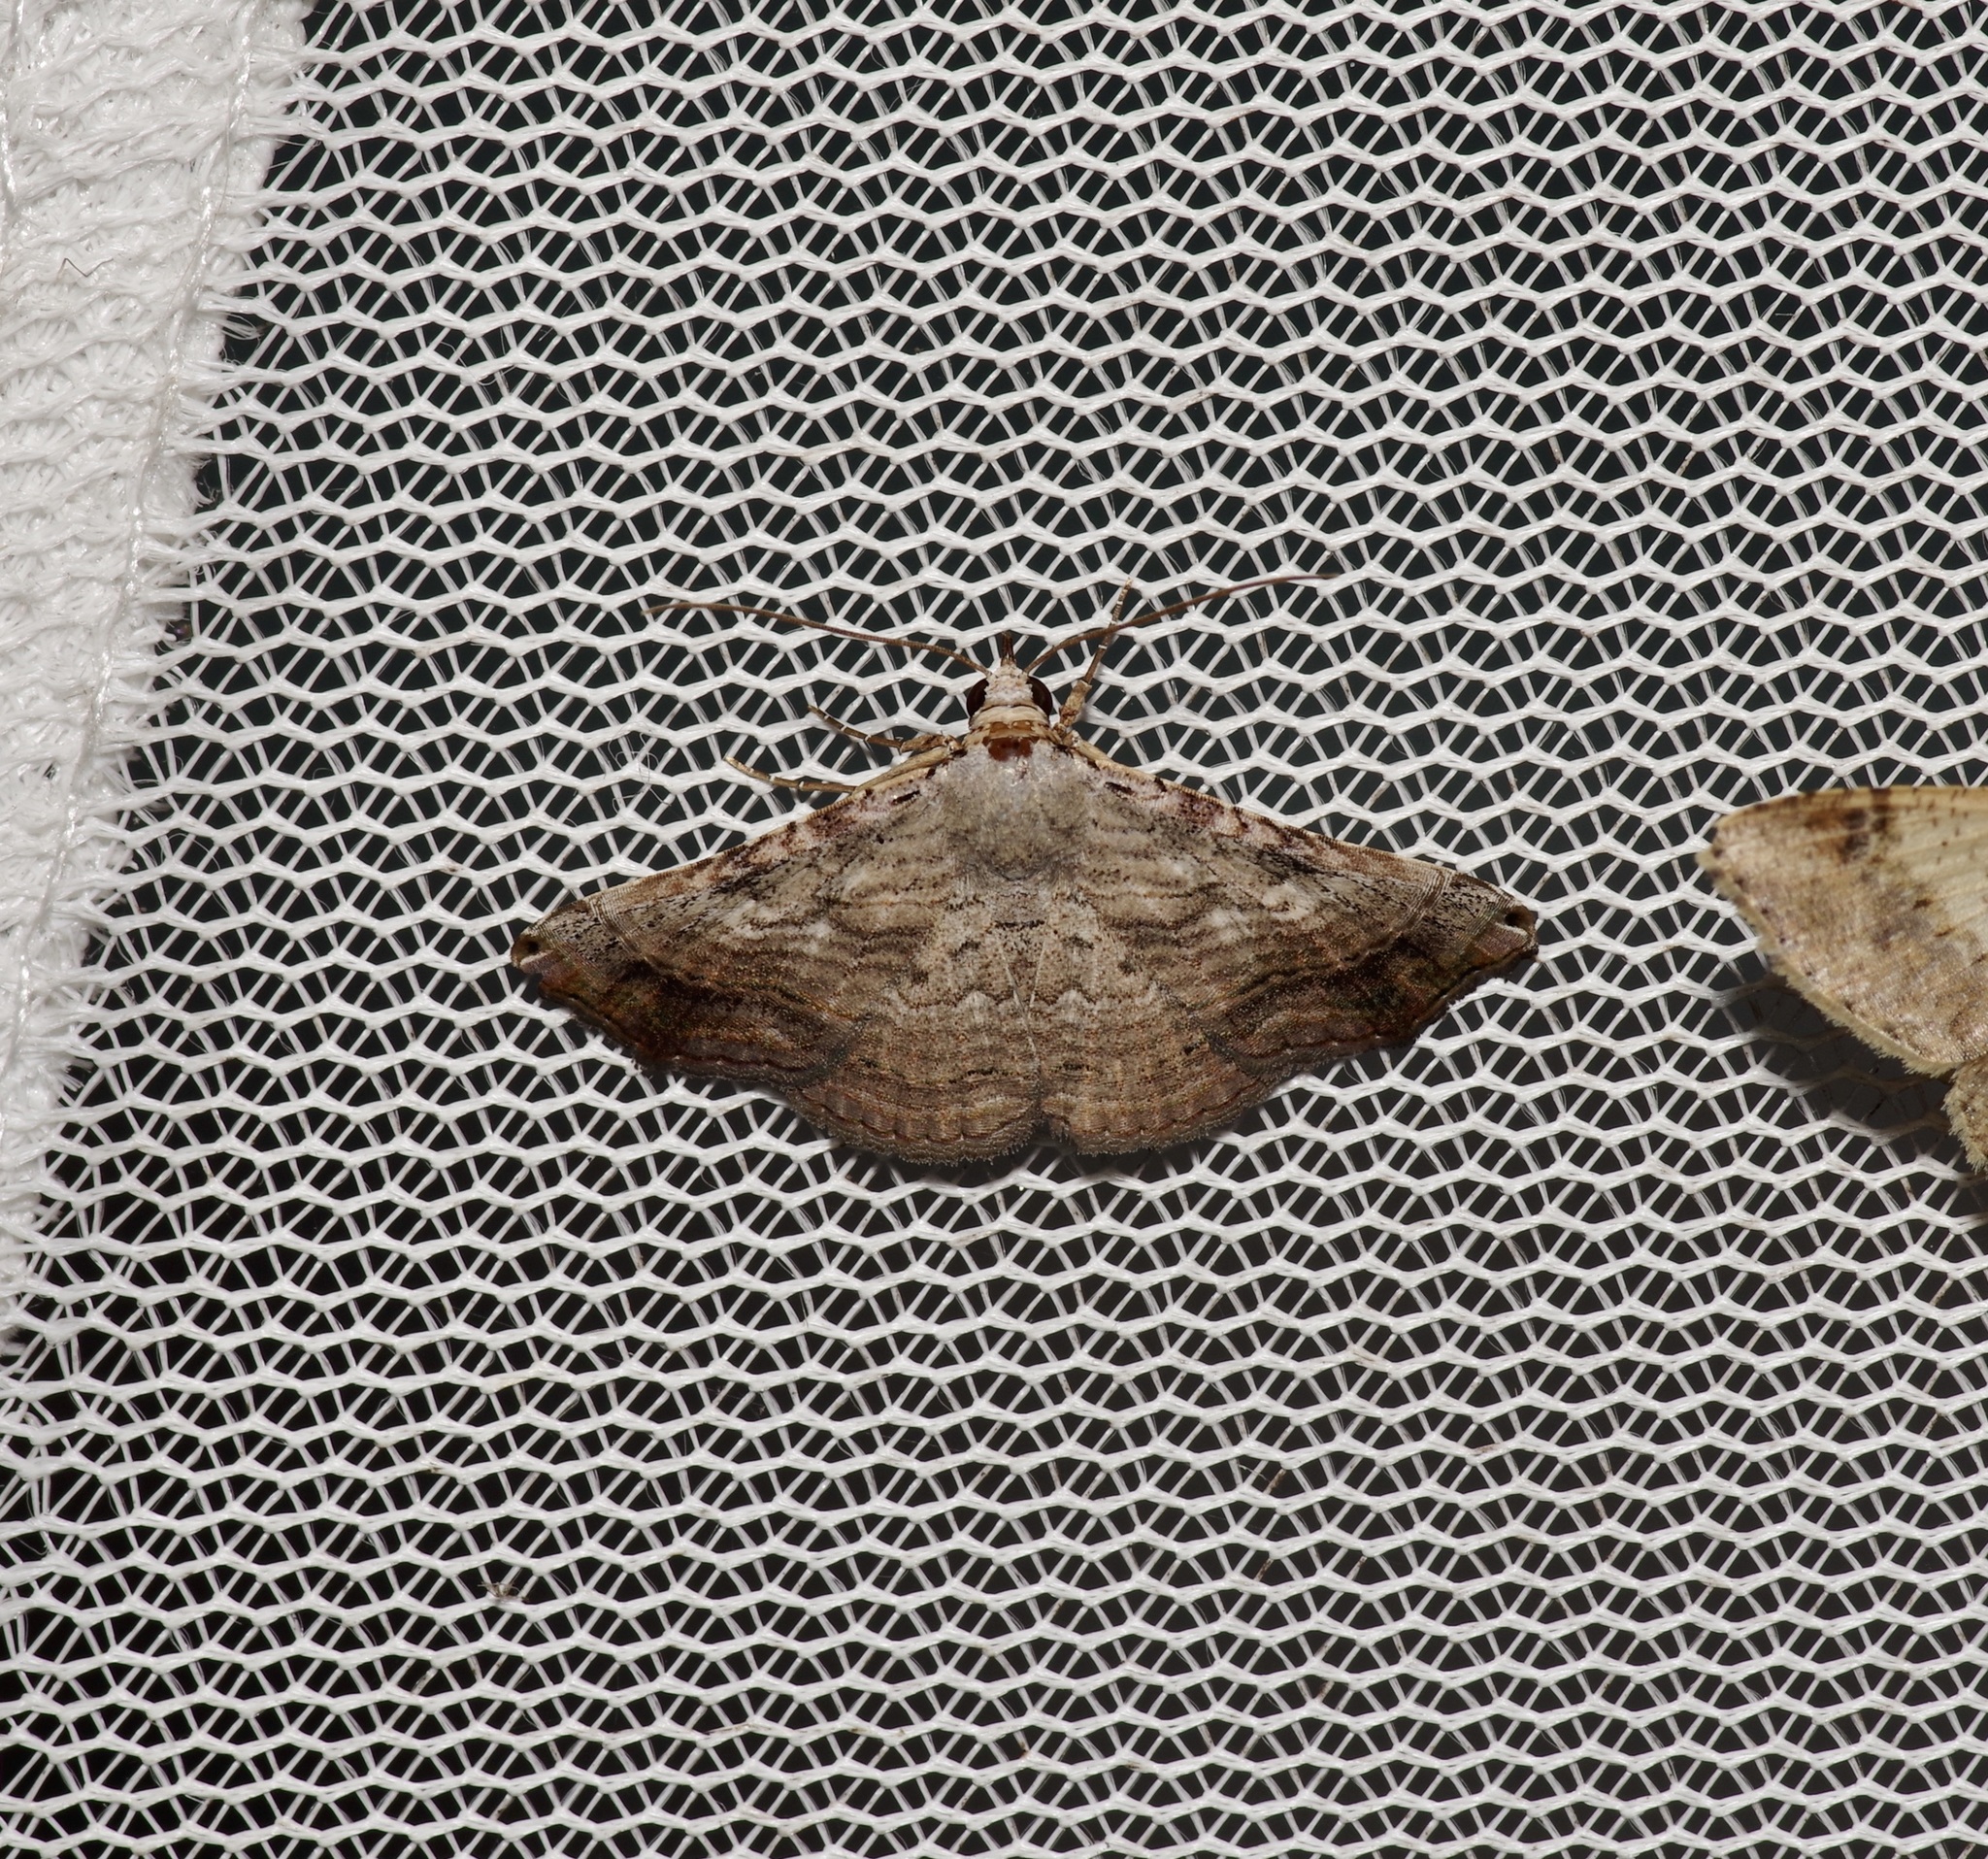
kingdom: Animalia
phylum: Arthropoda
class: Insecta
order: Lepidoptera
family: Erebidae
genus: Tyrissa
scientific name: Tyrissa multilinea
